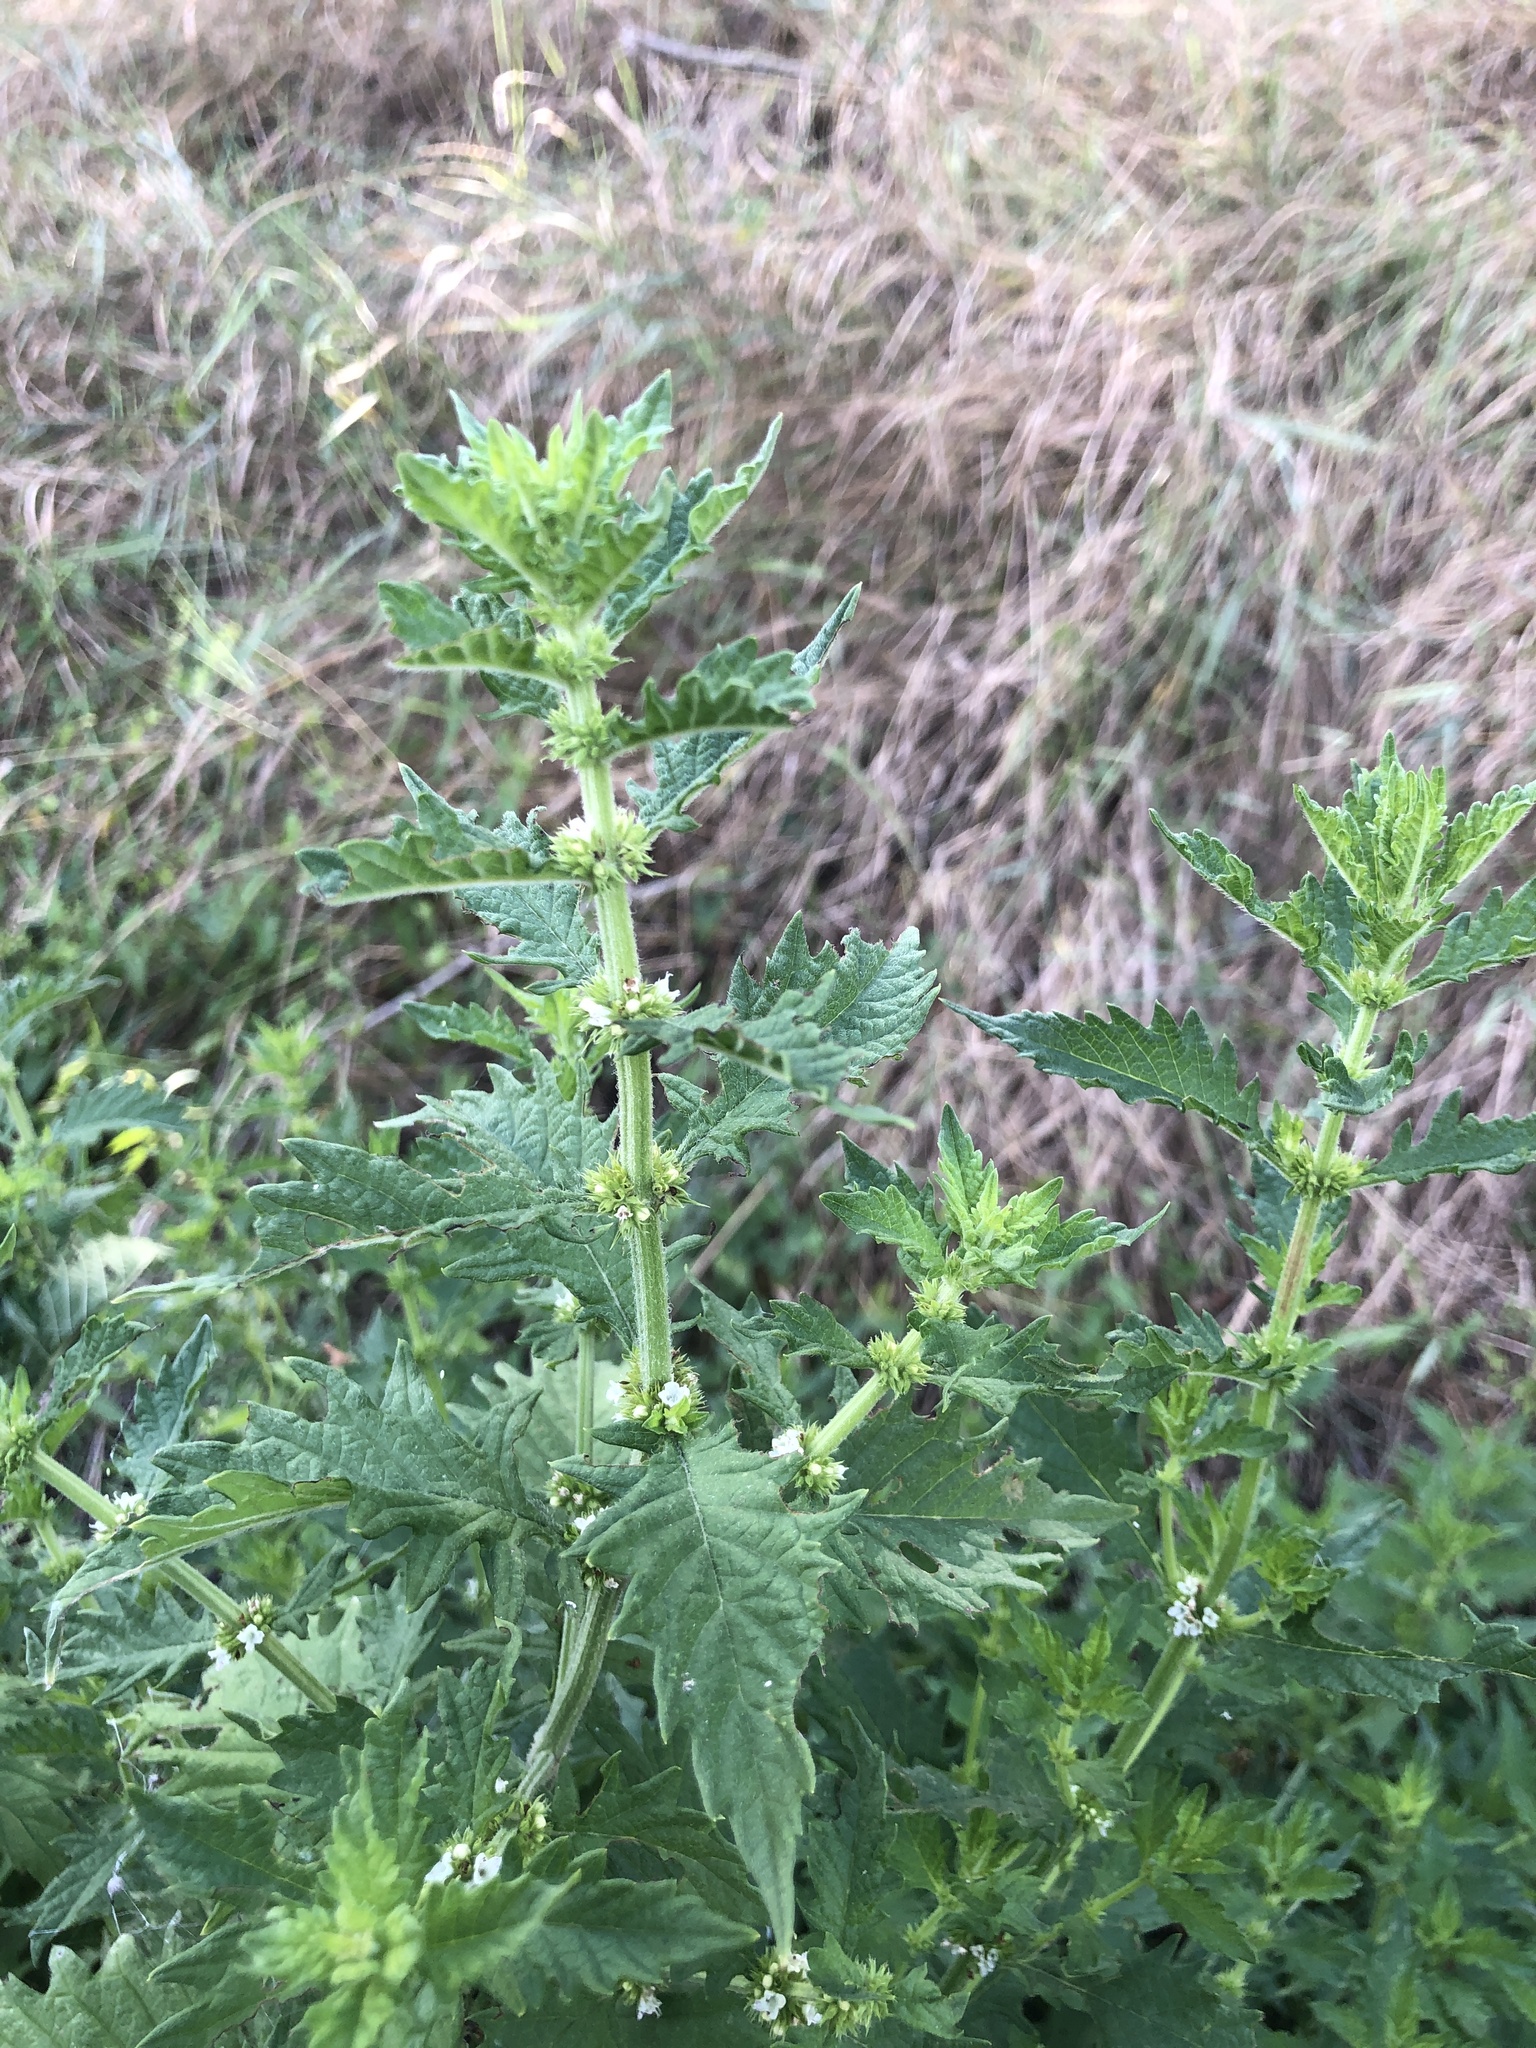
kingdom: Plantae
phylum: Tracheophyta
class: Magnoliopsida
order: Lamiales
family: Lamiaceae
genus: Lycopus
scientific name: Lycopus europaeus
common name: European bugleweed
